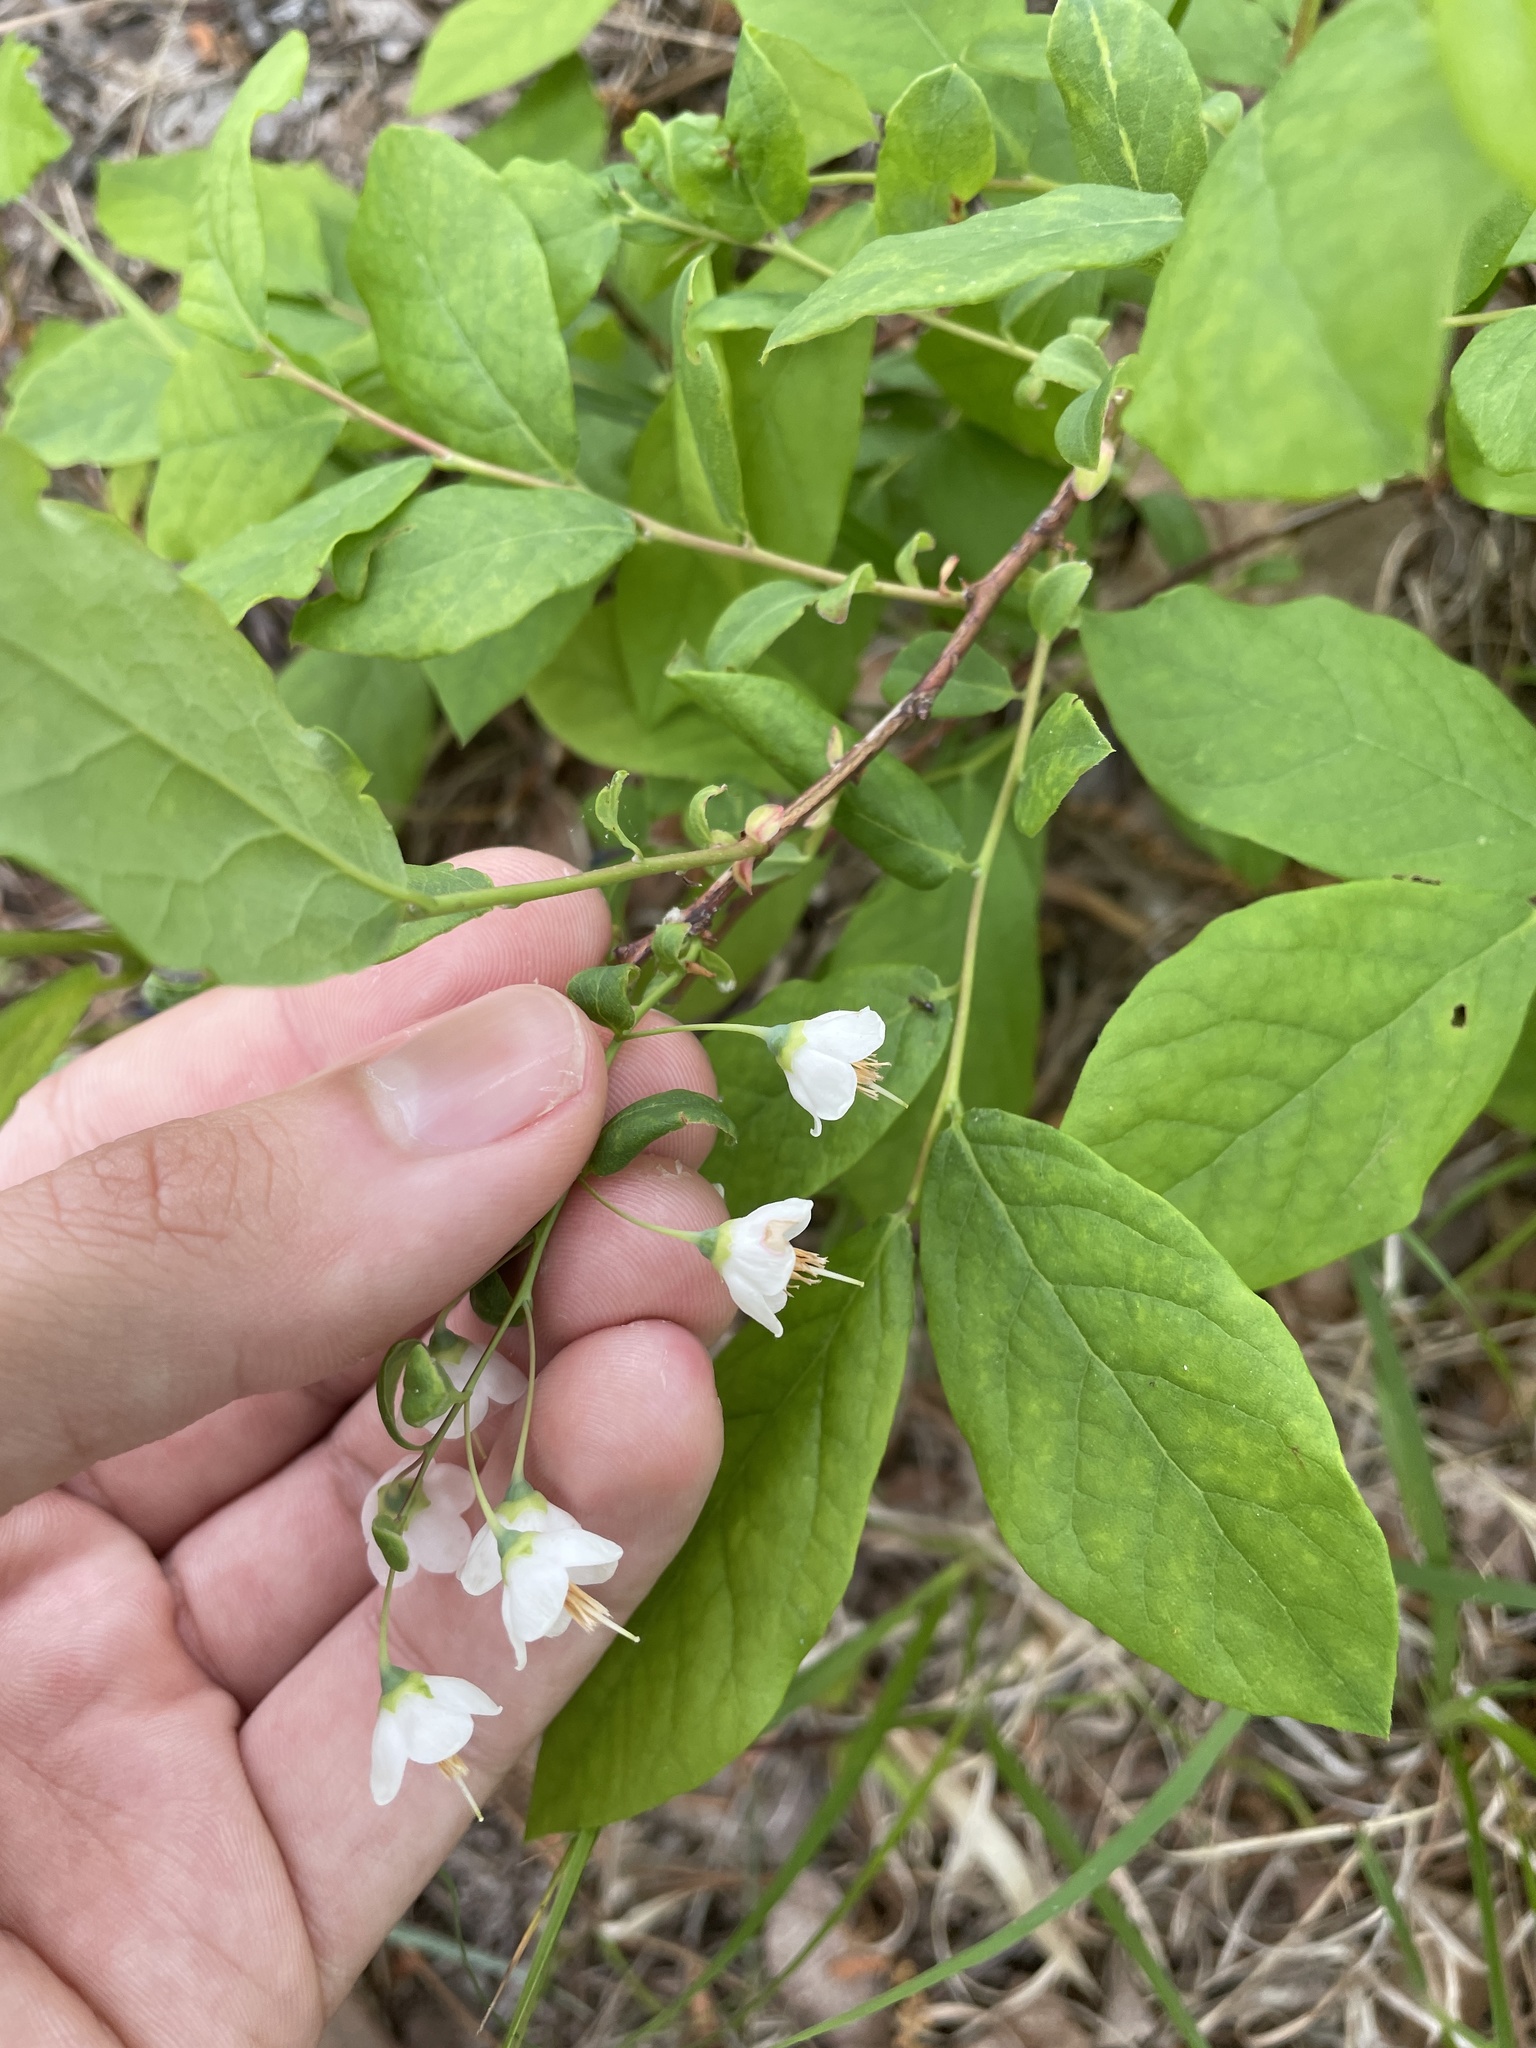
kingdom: Plantae
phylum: Tracheophyta
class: Magnoliopsida
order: Ericales
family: Ericaceae
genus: Vaccinium
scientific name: Vaccinium stamineum
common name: Deerberry
